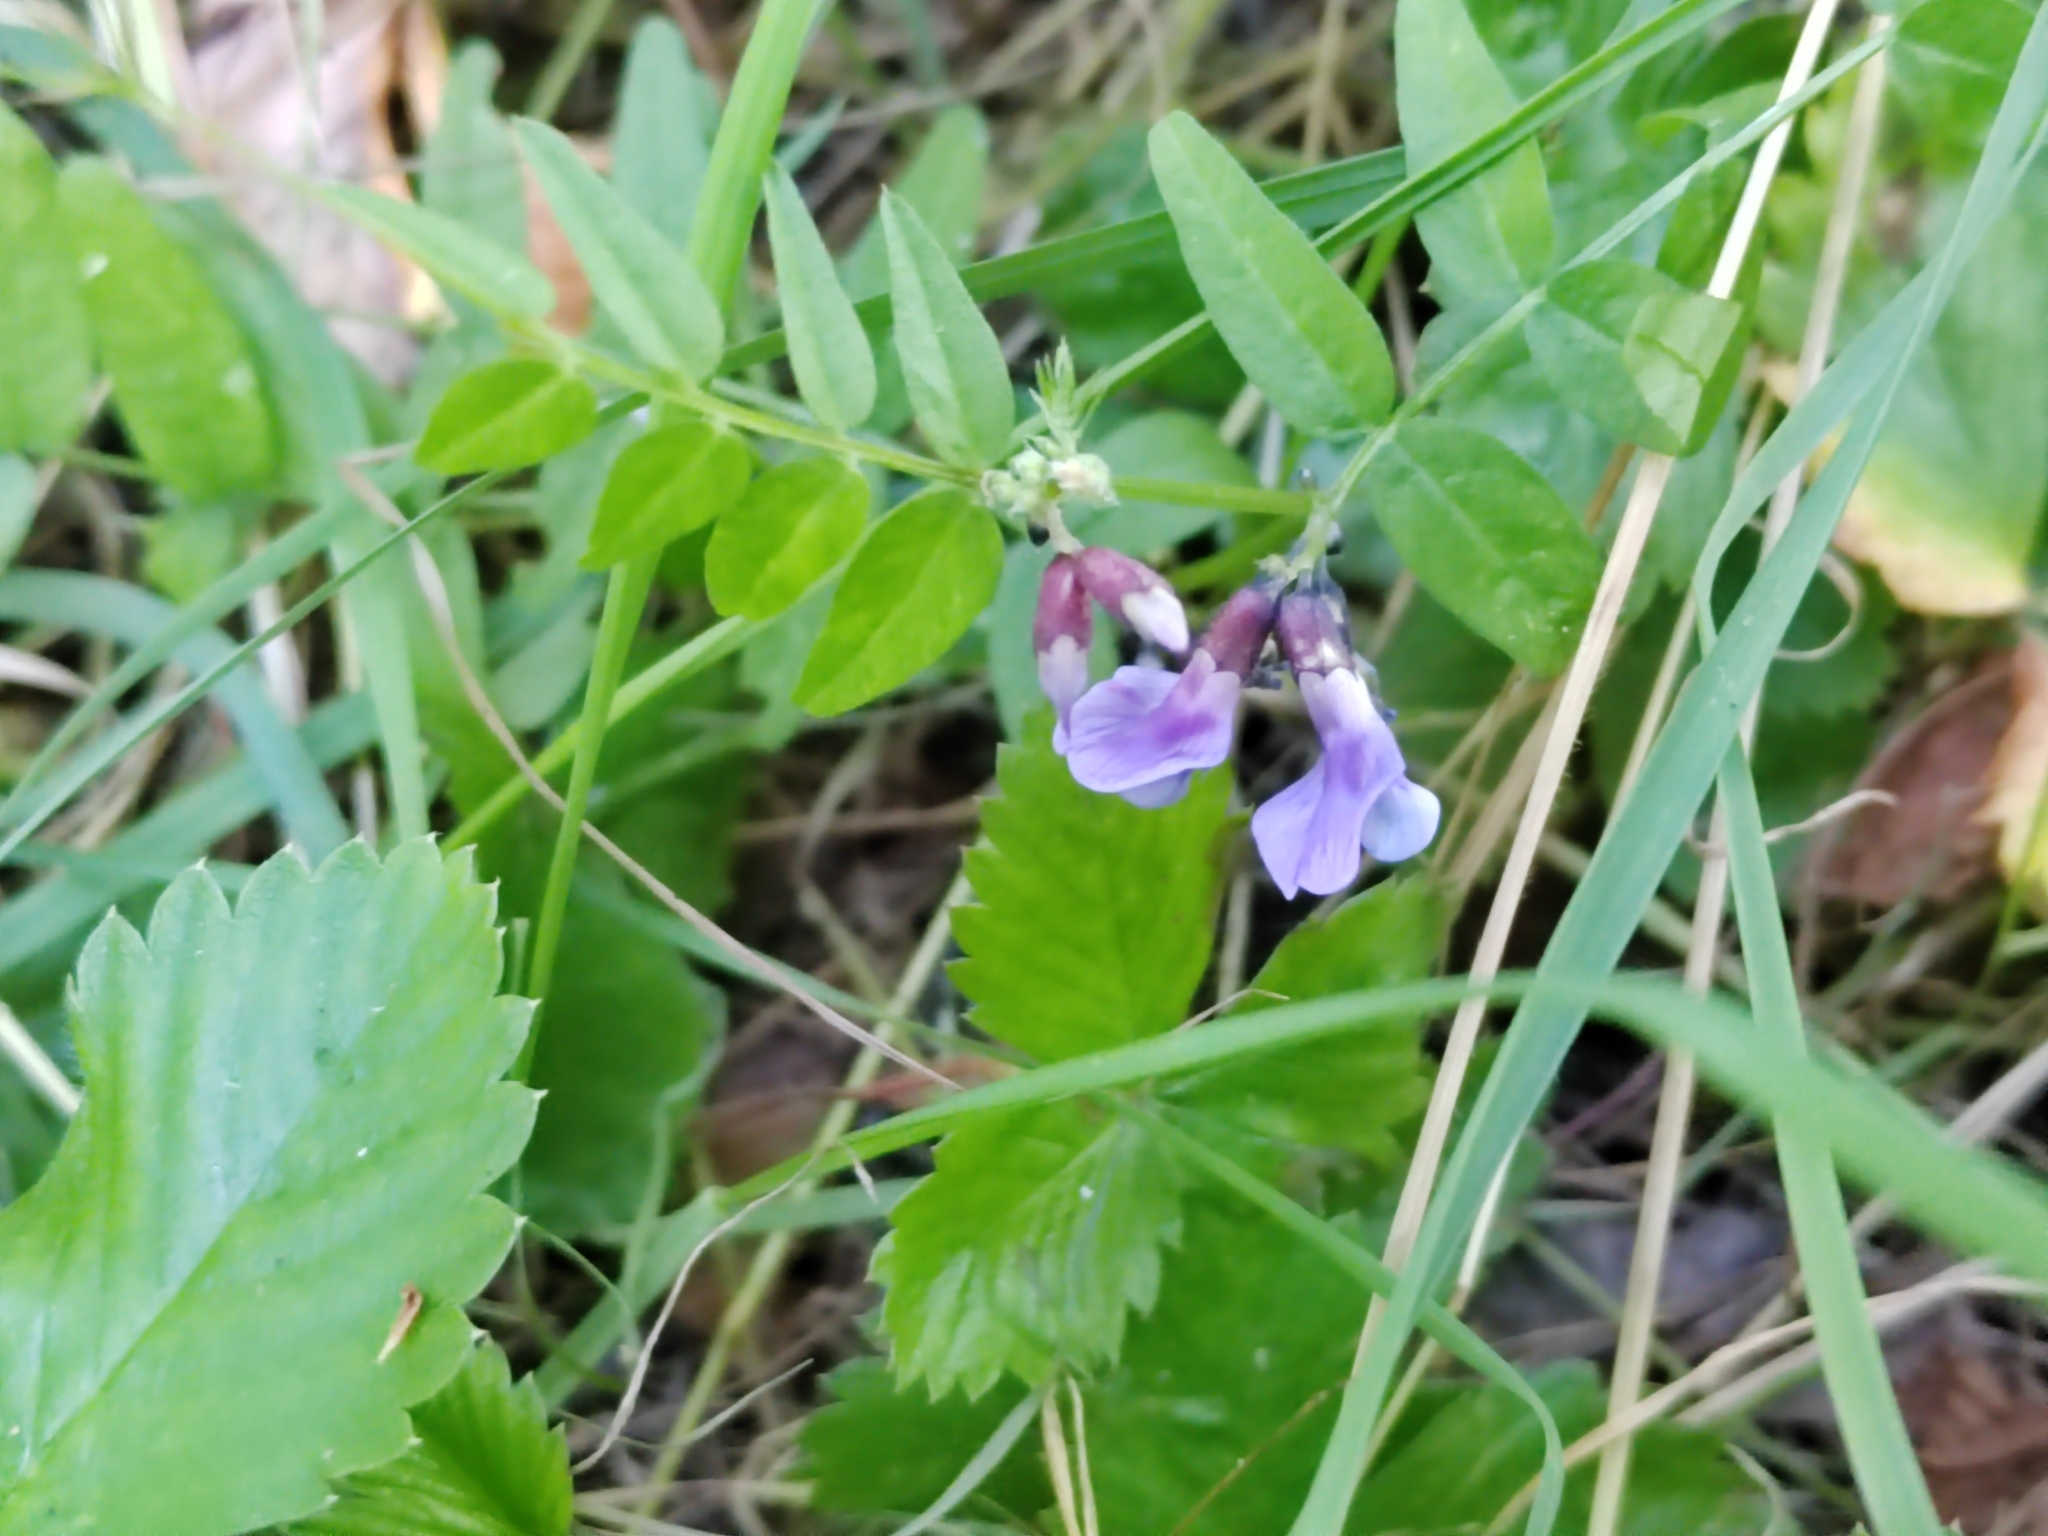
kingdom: Plantae
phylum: Tracheophyta
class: Magnoliopsida
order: Fabales
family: Fabaceae
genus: Vicia
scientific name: Vicia sepium
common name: Bush vetch
